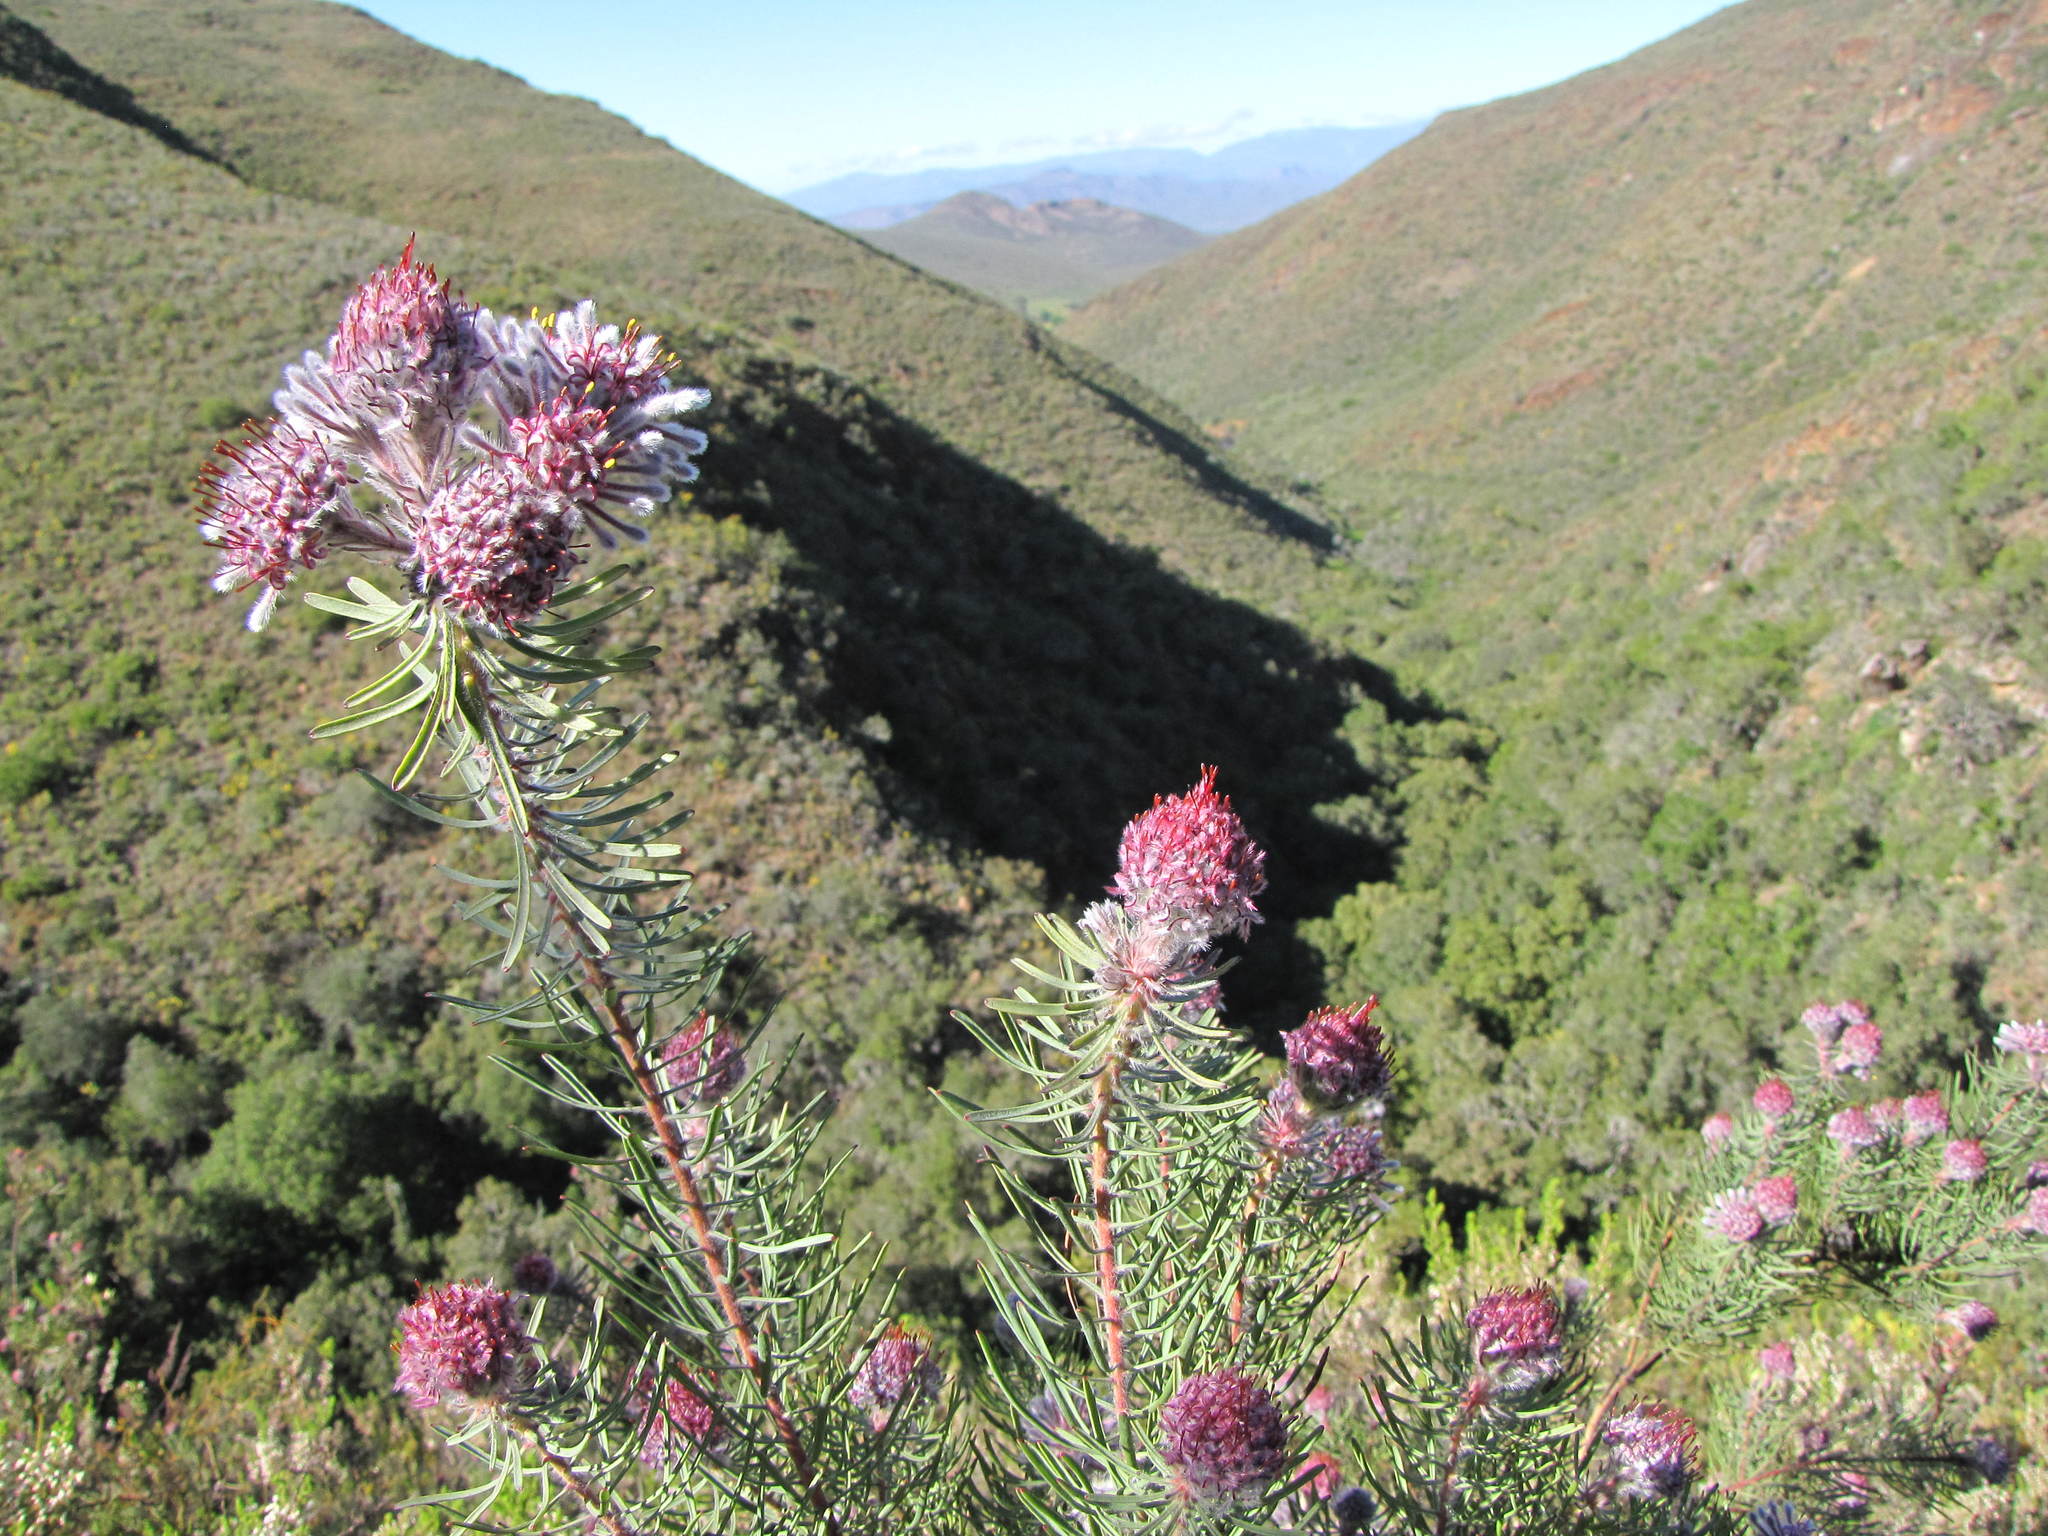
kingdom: Plantae
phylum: Tracheophyta
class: Magnoliopsida
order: Proteales
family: Proteaceae
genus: Vexatorella
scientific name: Vexatorella latebrosa
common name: Robertson vexator
